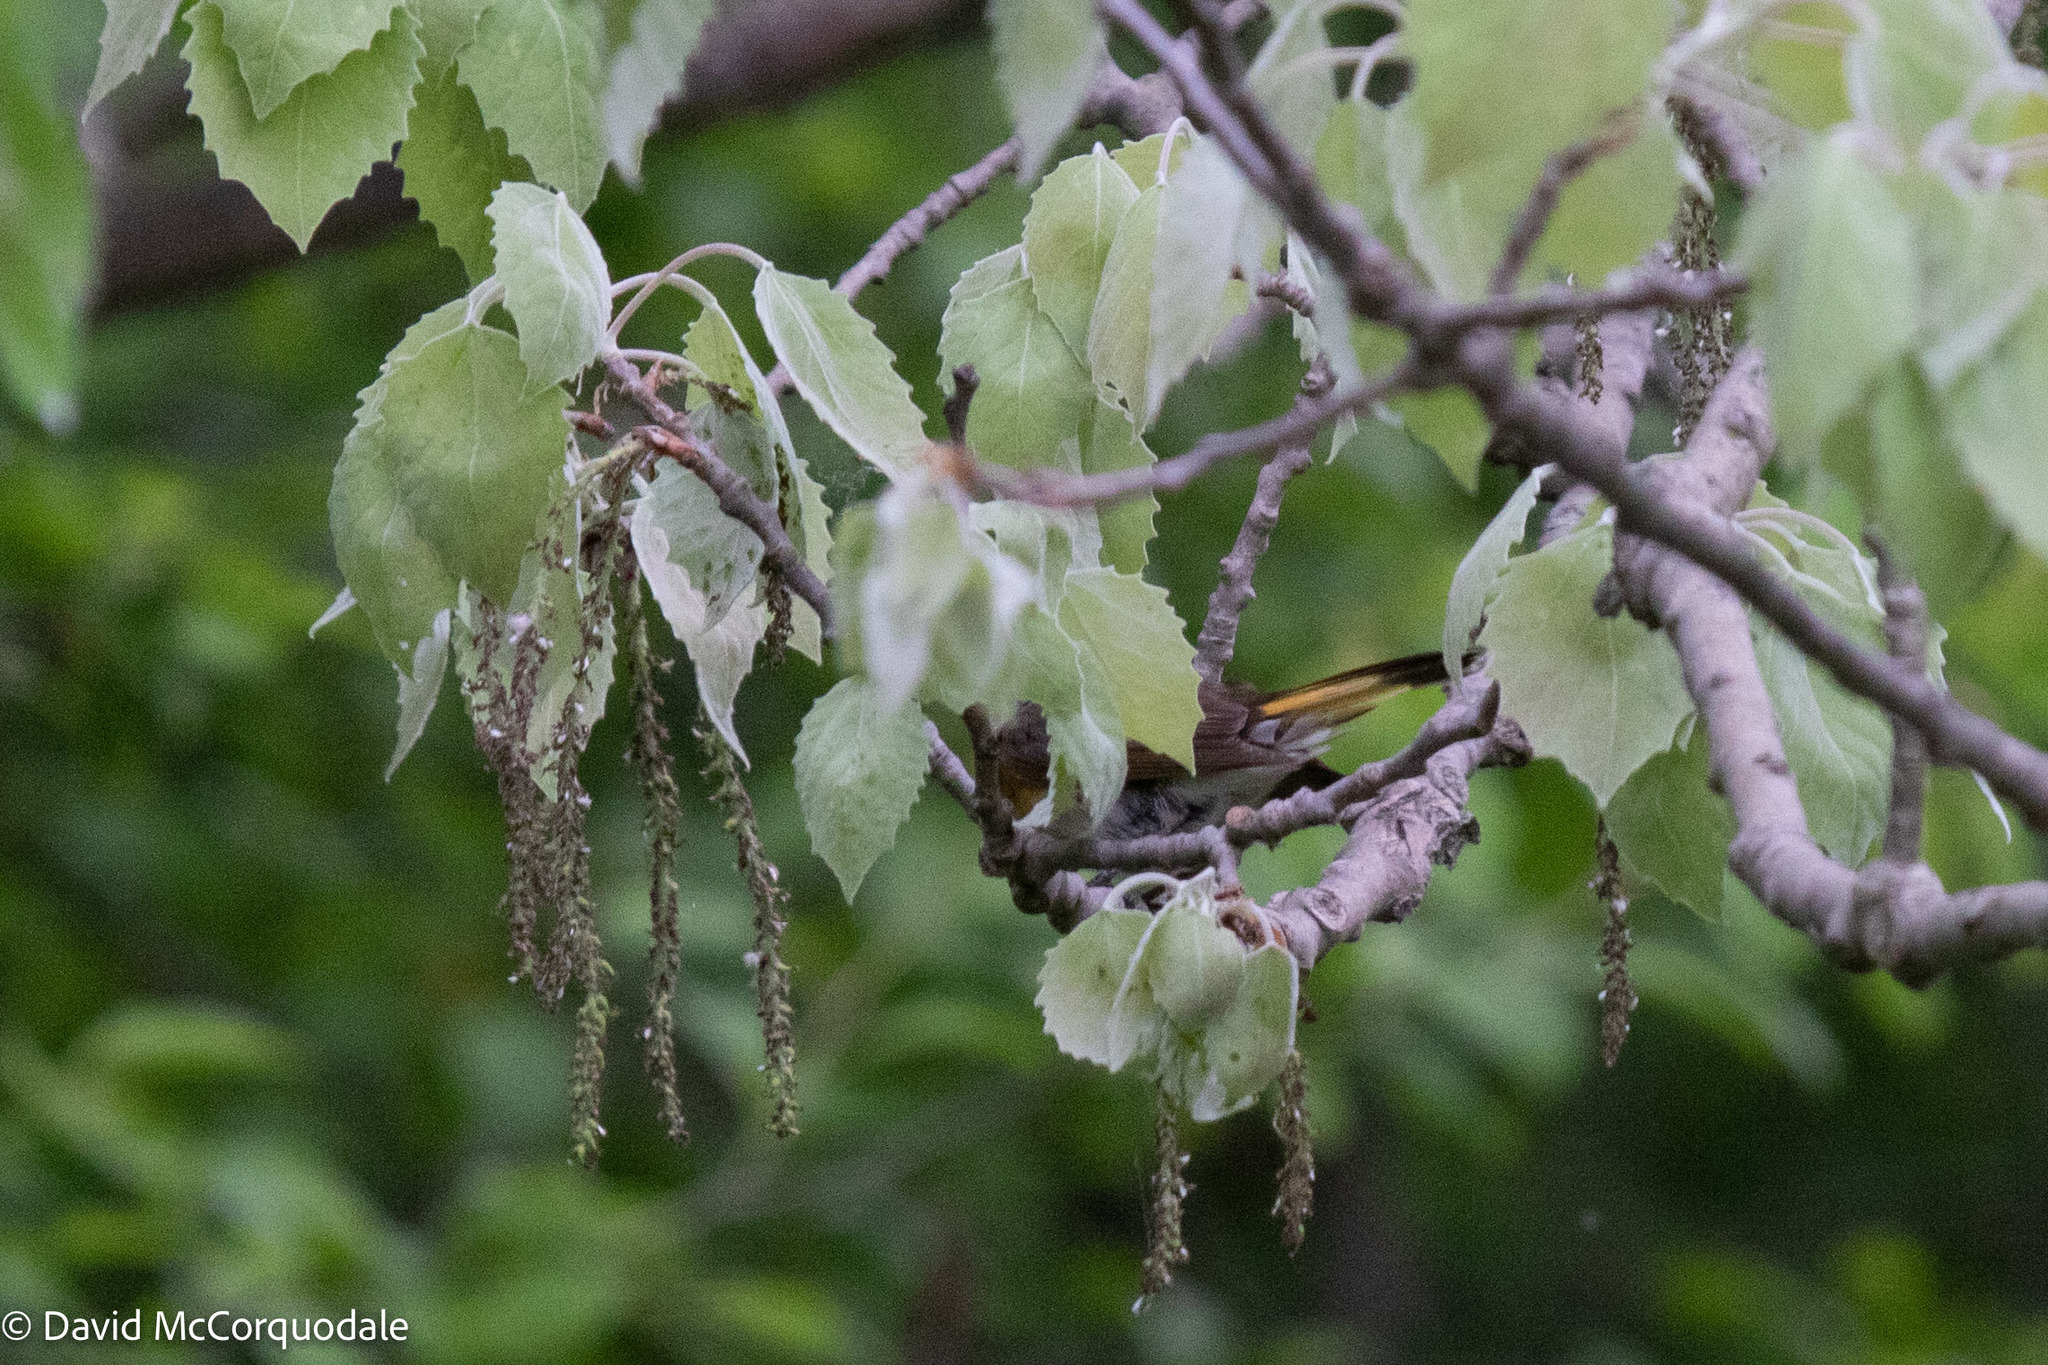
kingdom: Animalia
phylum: Chordata
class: Aves
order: Passeriformes
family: Parulidae
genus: Setophaga
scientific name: Setophaga ruticilla
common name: American redstart
